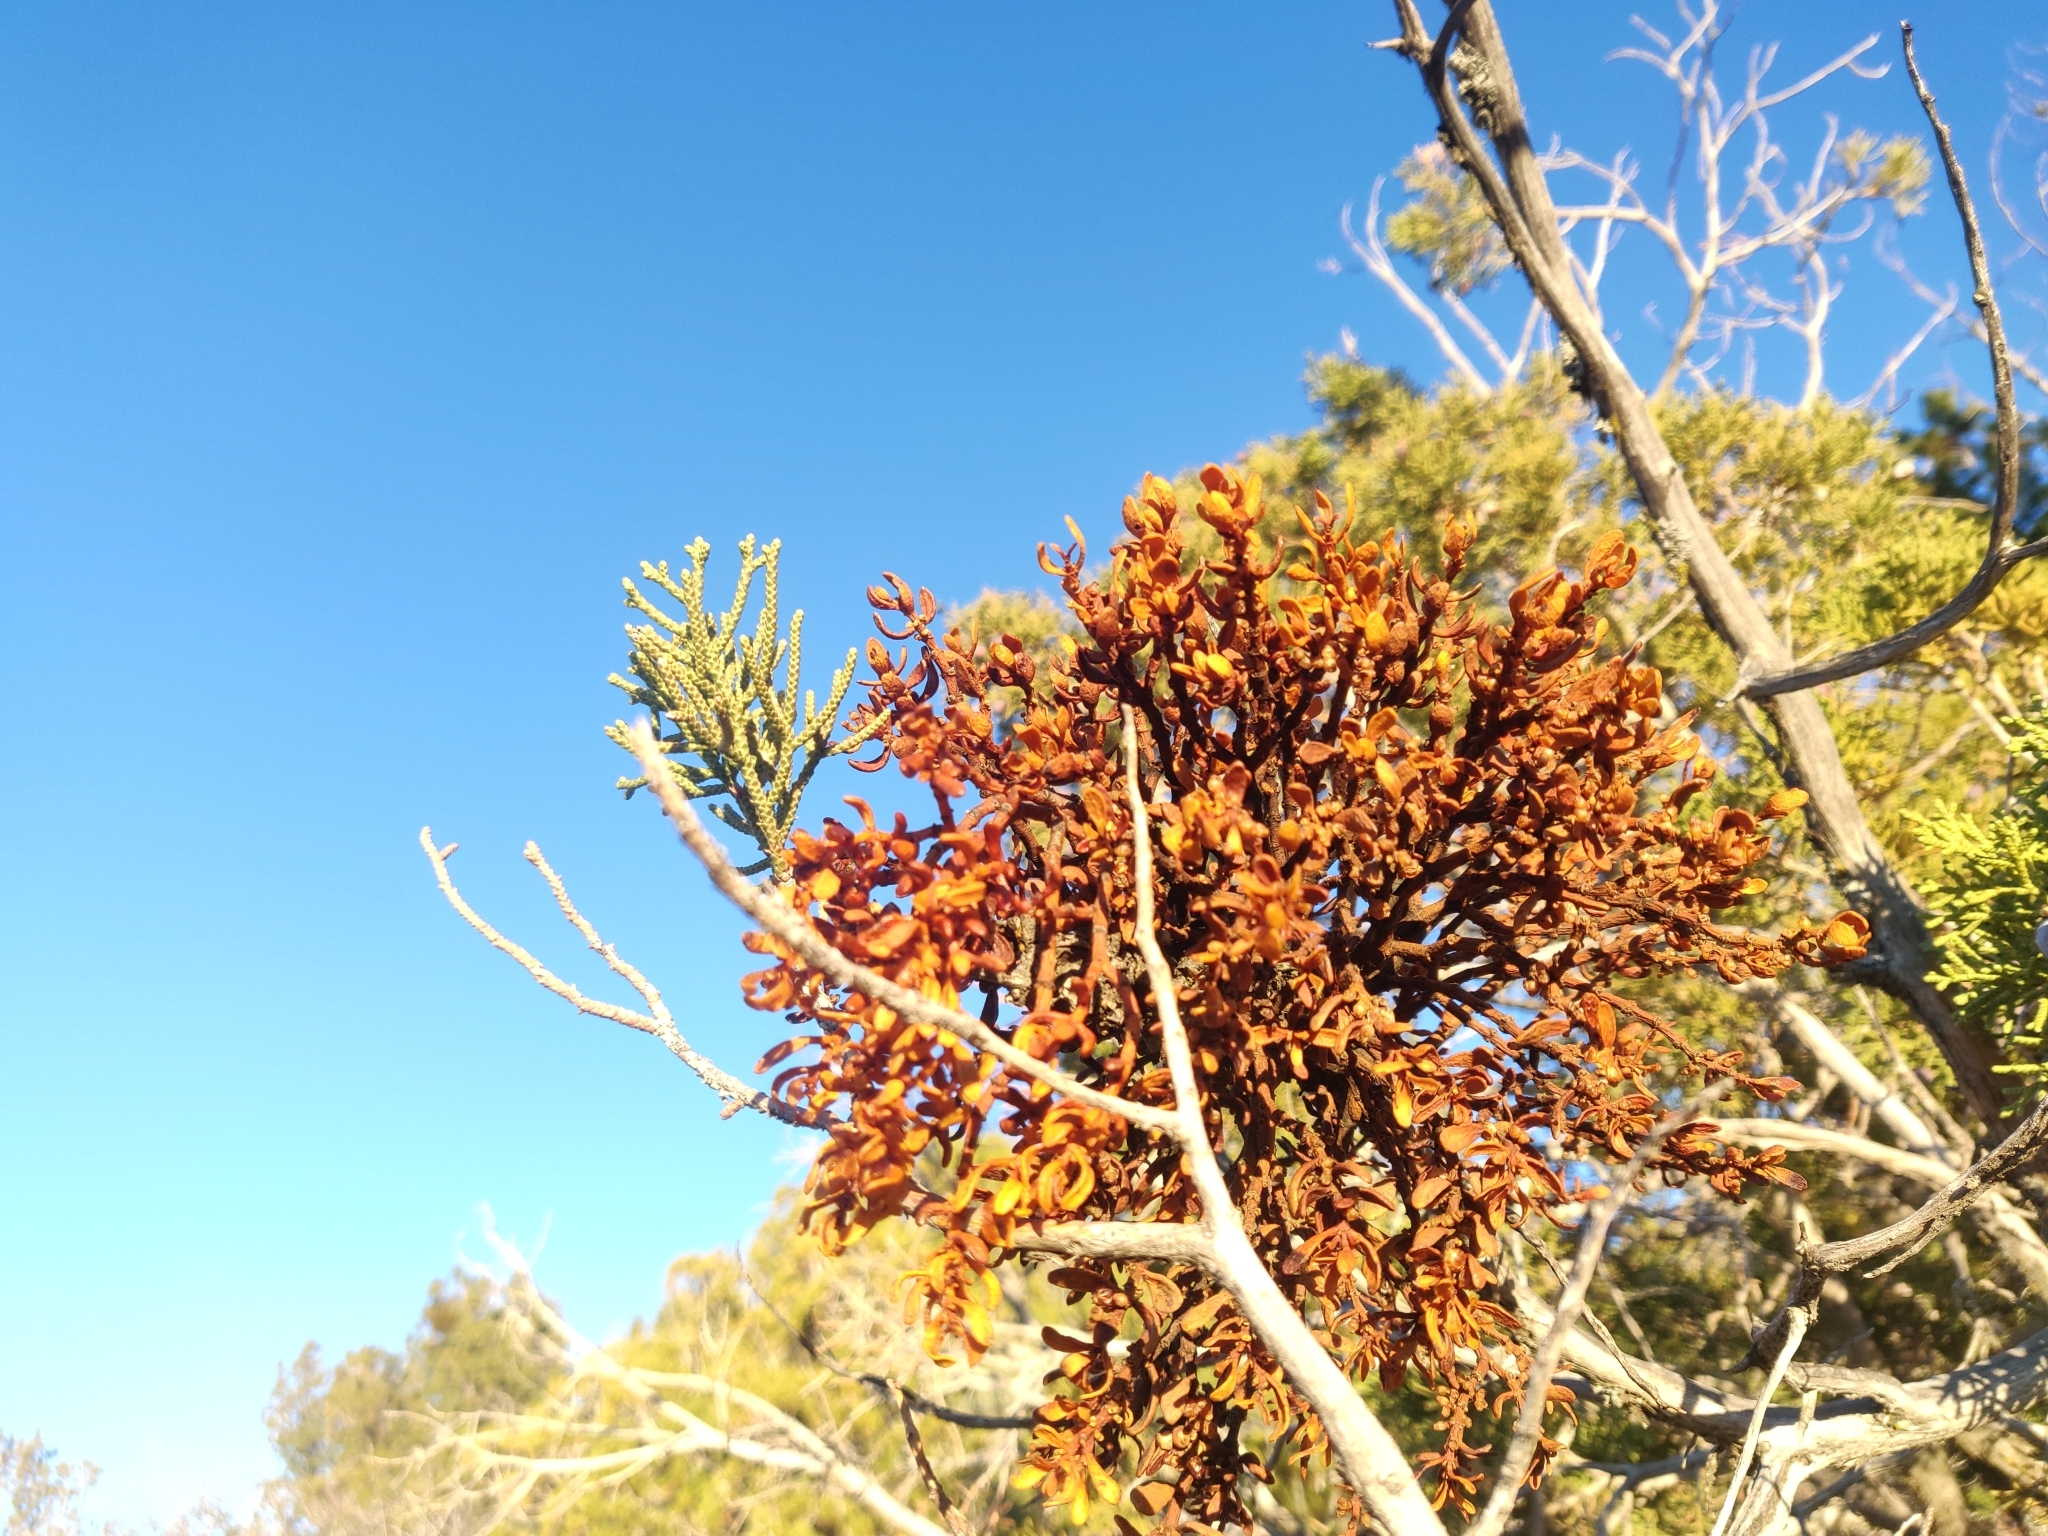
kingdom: Plantae
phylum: Tracheophyta
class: Magnoliopsida
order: Santalales
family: Viscaceae
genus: Phoradendron
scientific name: Phoradendron bolleanum
